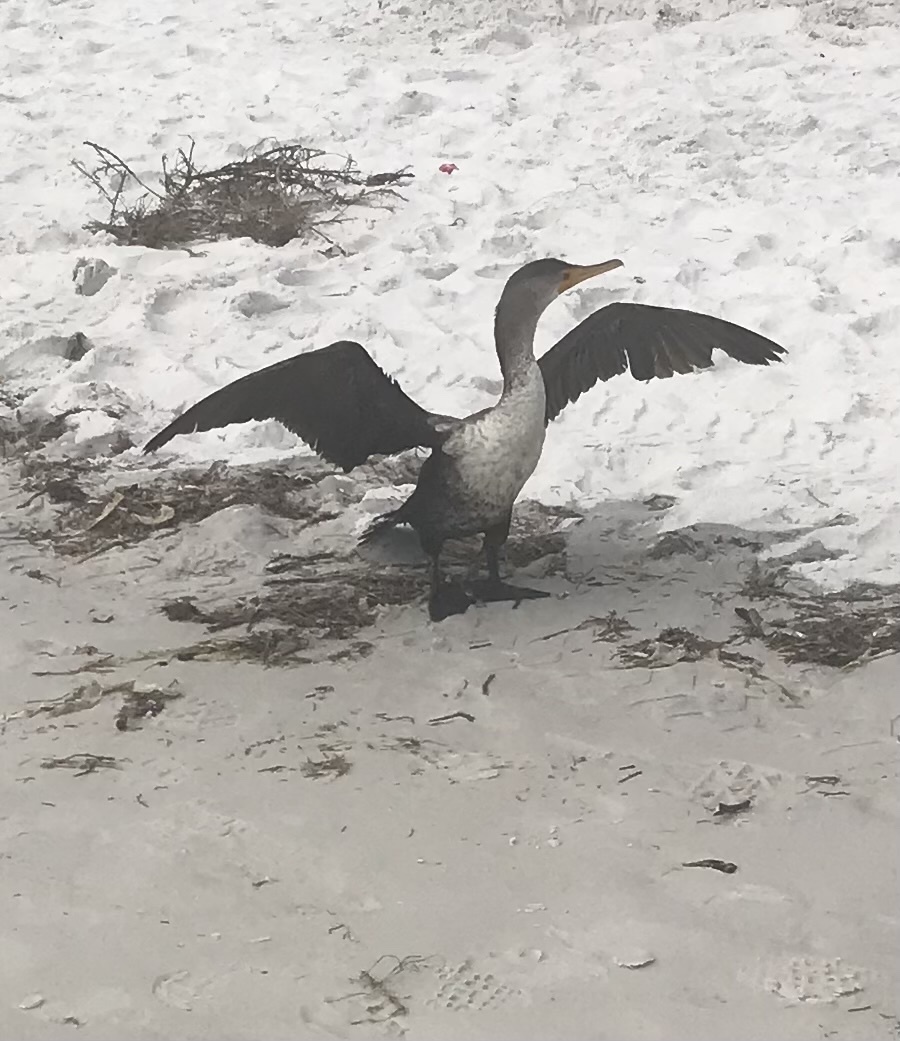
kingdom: Animalia
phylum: Chordata
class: Aves
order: Suliformes
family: Phalacrocoracidae
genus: Phalacrocorax
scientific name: Phalacrocorax auritus
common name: Double-crested cormorant
